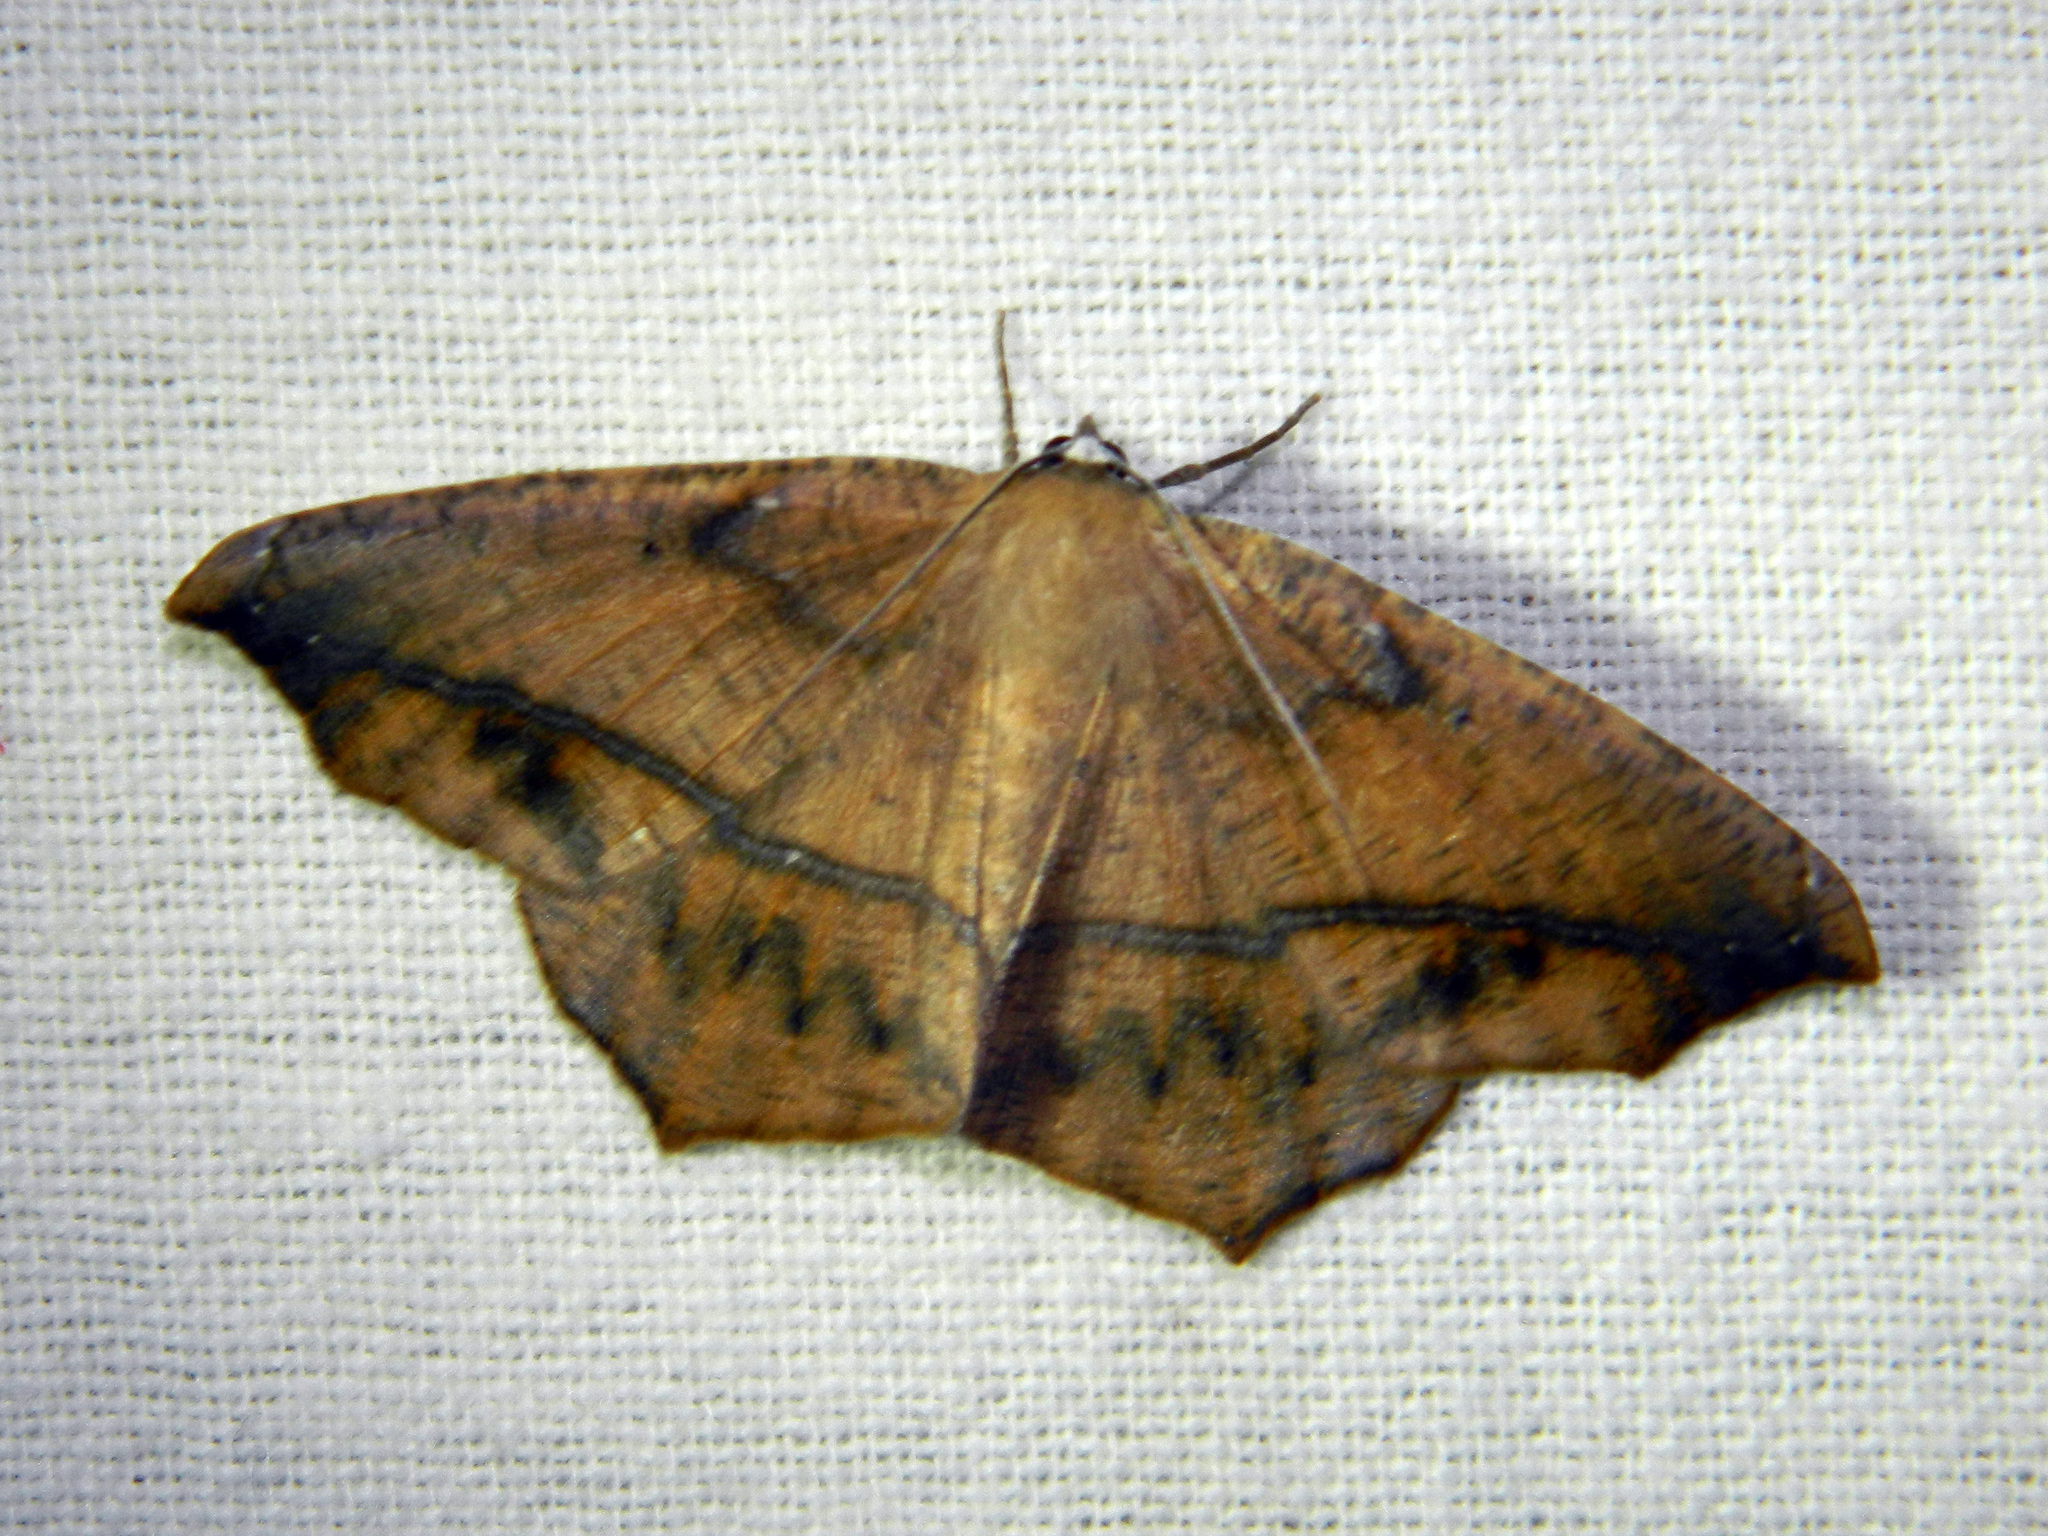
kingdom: Animalia
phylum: Arthropoda
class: Insecta
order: Lepidoptera
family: Geometridae
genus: Prochoerodes
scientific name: Prochoerodes lineola
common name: Large maple spanworm
